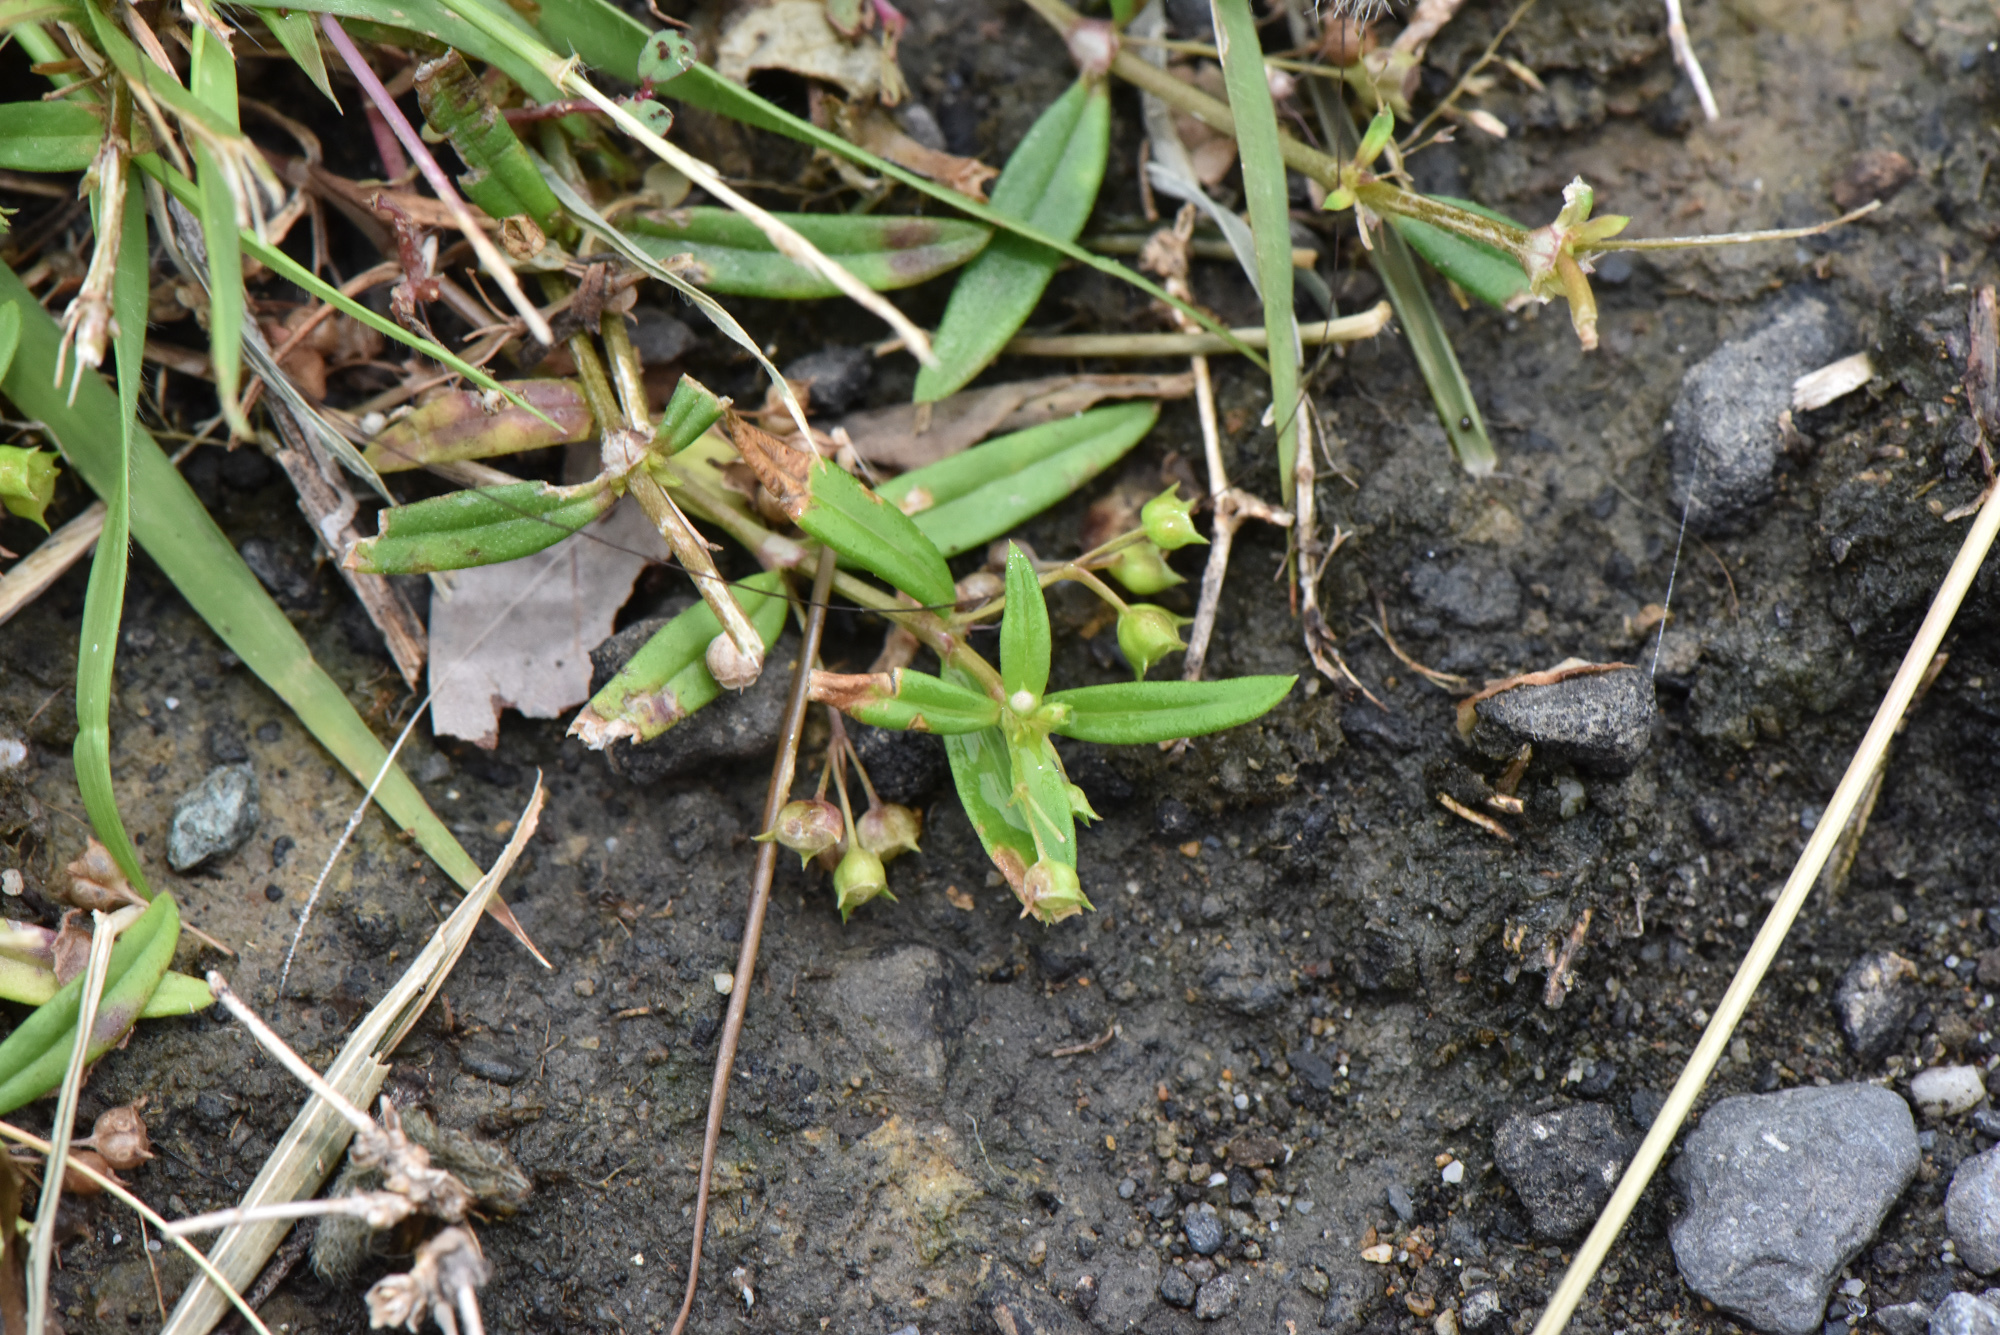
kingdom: Plantae
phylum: Tracheophyta
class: Magnoliopsida
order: Gentianales
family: Rubiaceae
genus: Oldenlandia
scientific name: Oldenlandia corymbosa
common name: Flat-top mille graines
